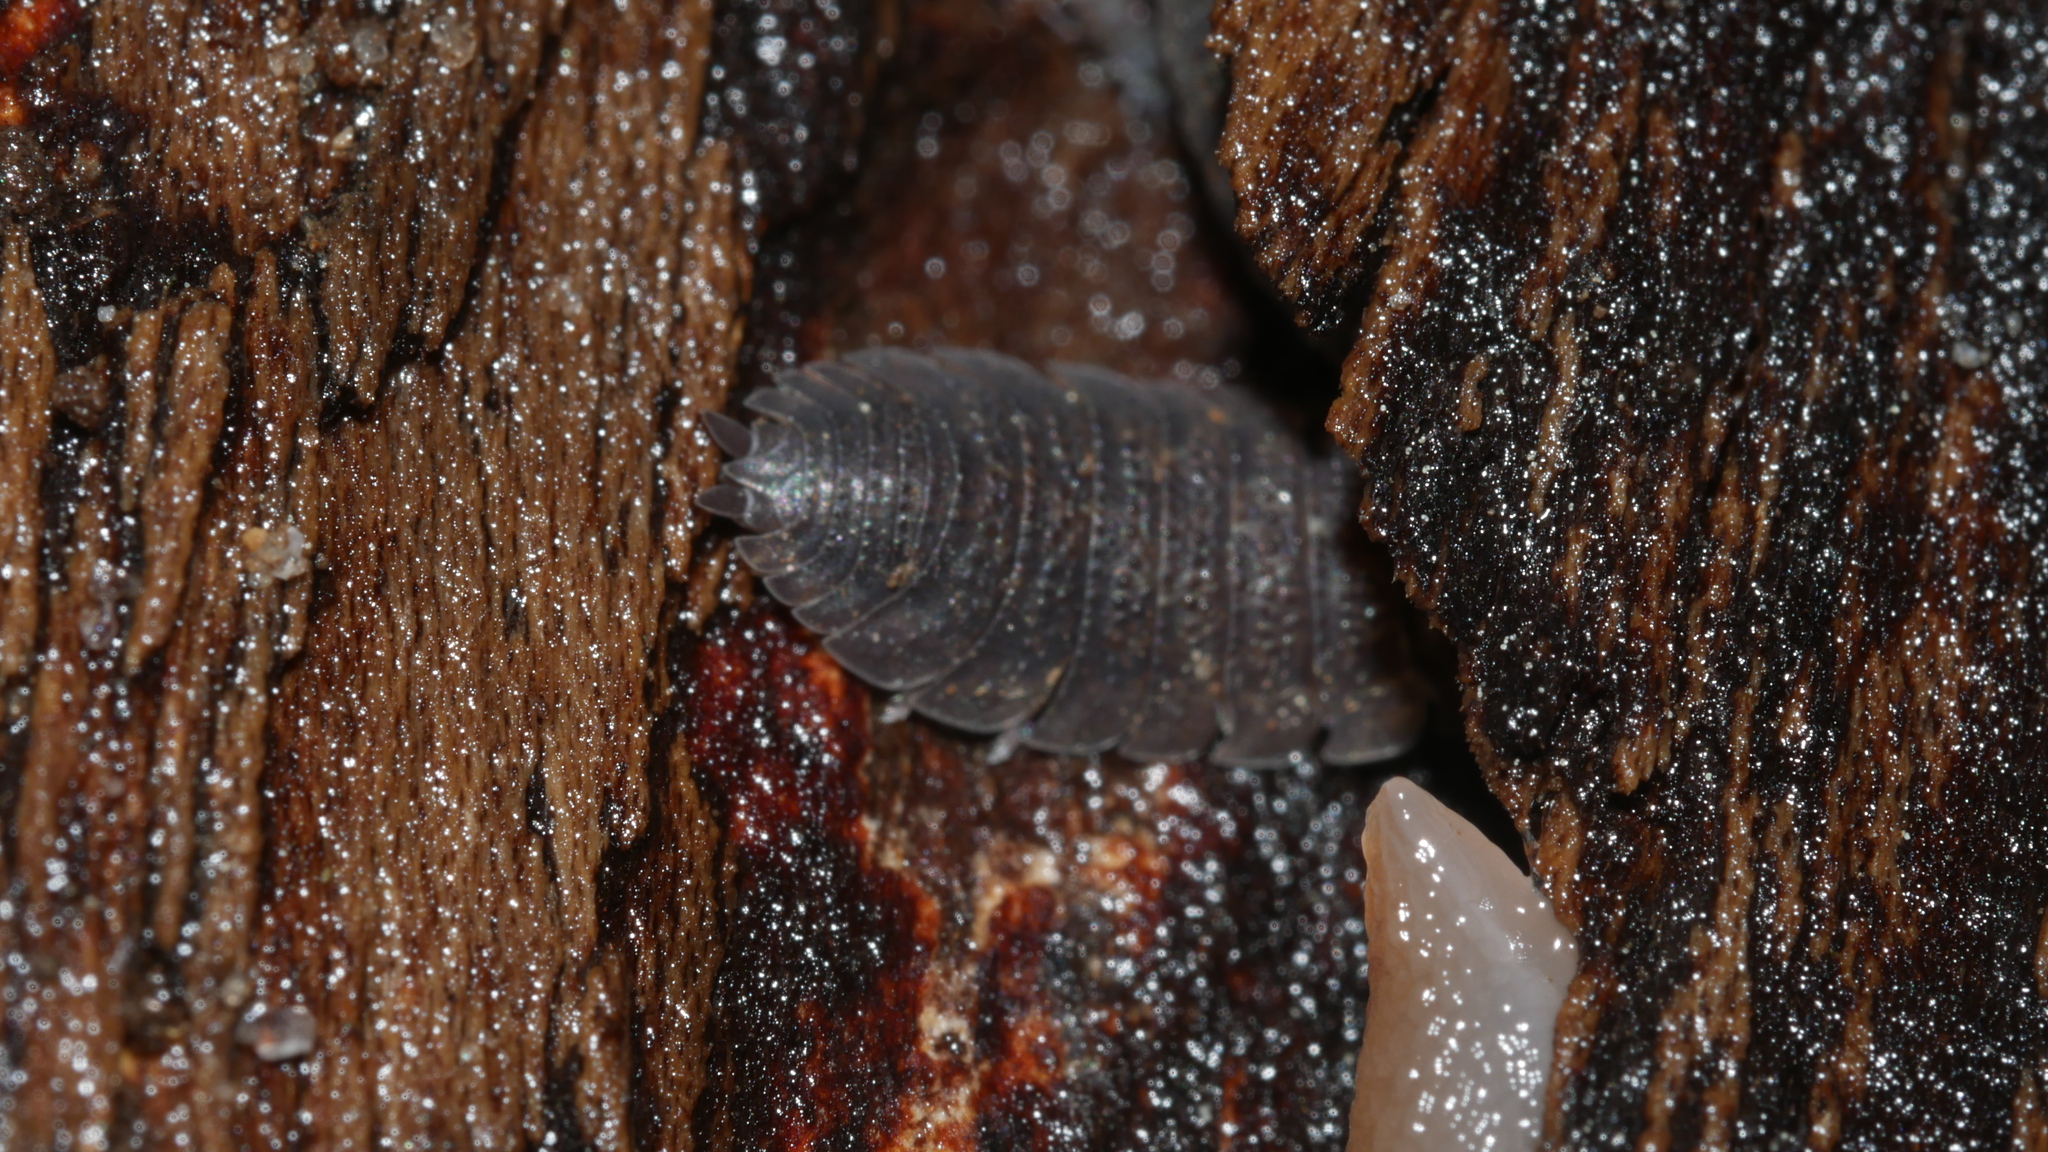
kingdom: Animalia
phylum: Arthropoda
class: Malacostraca
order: Isopoda
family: Porcellionidae
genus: Porcellio
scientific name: Porcellio scaber
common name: Common rough woodlouse
